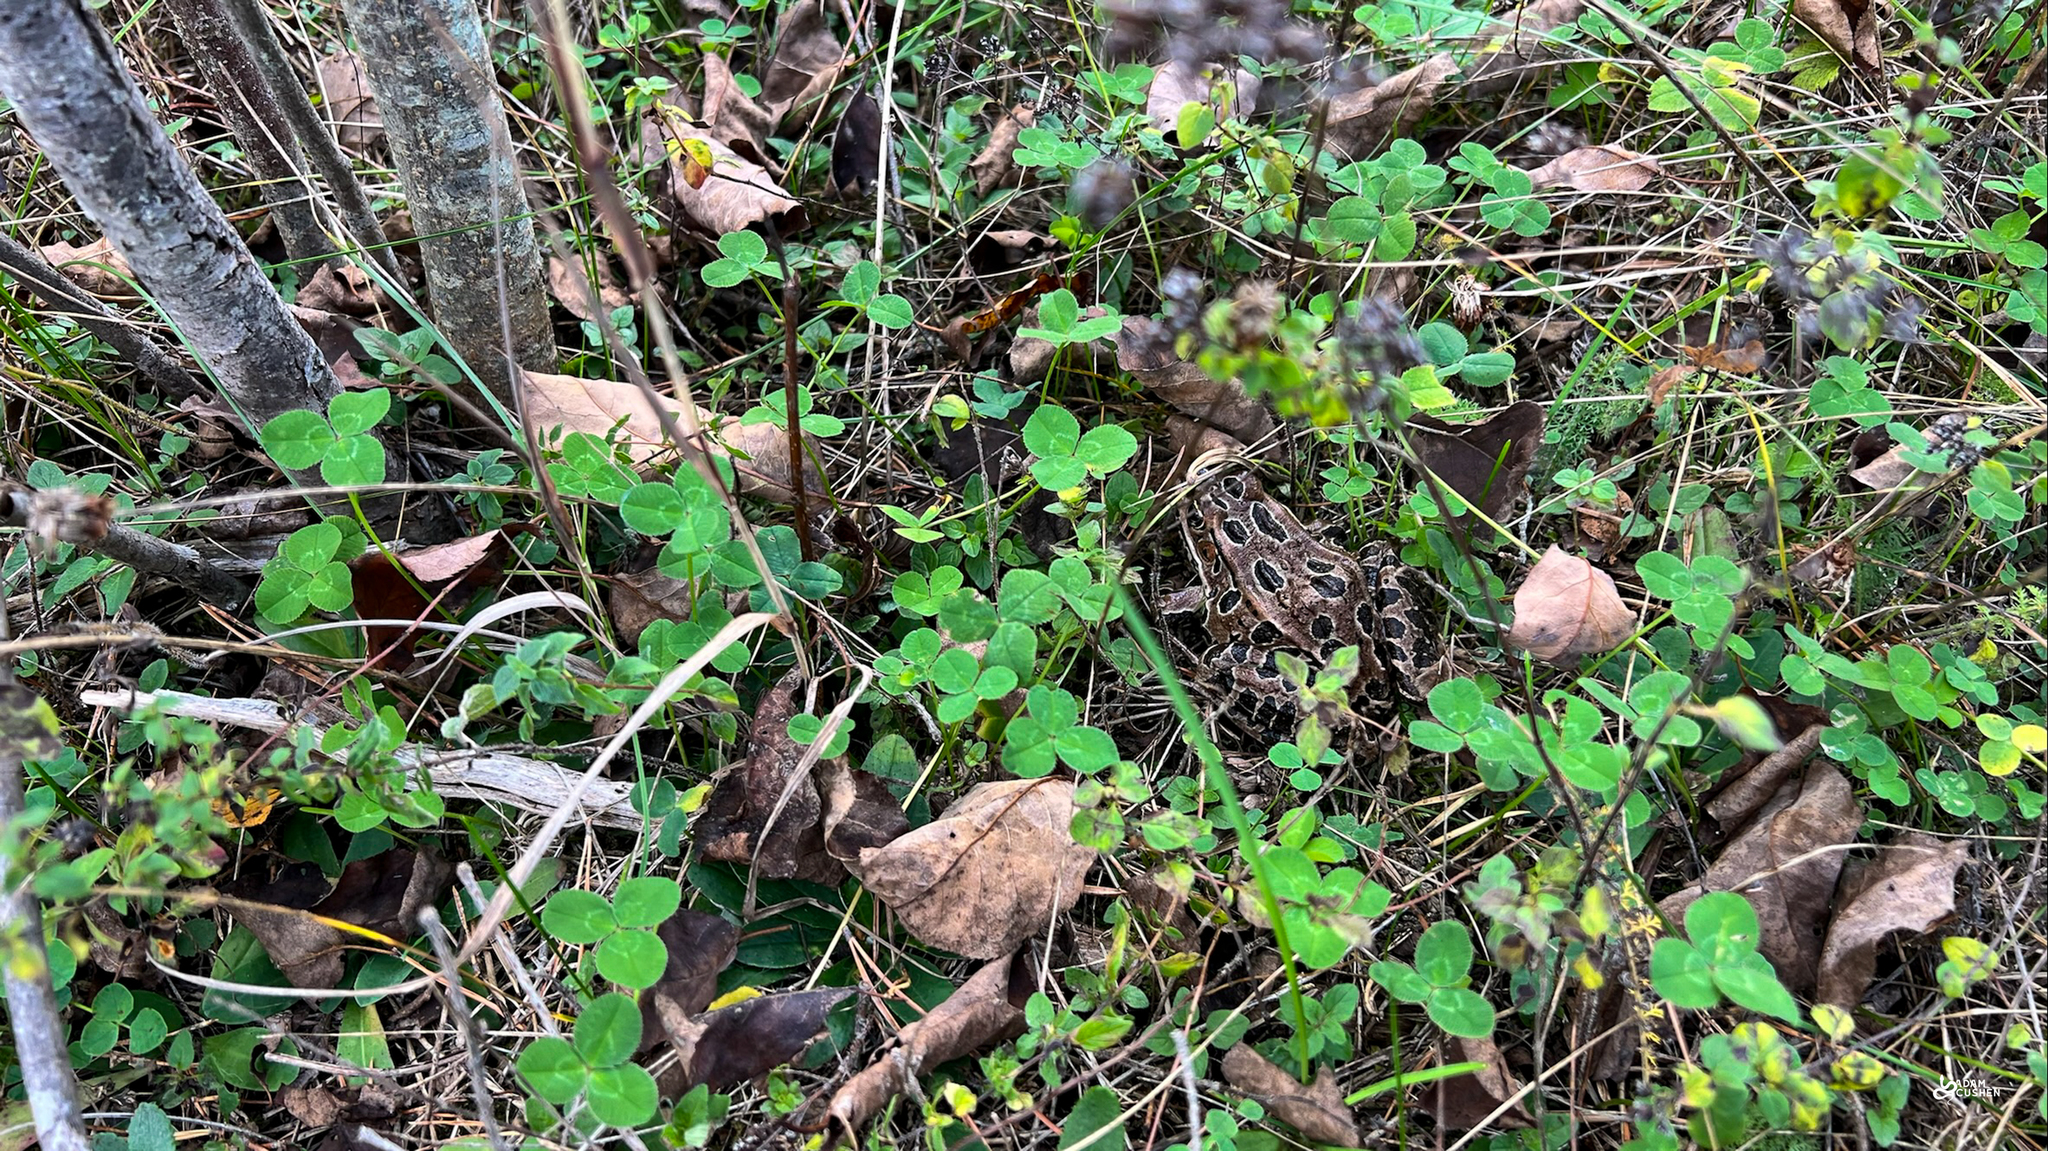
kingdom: Animalia
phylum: Chordata
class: Amphibia
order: Anura
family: Ranidae
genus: Lithobates
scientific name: Lithobates pipiens
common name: Northern leopard frog
